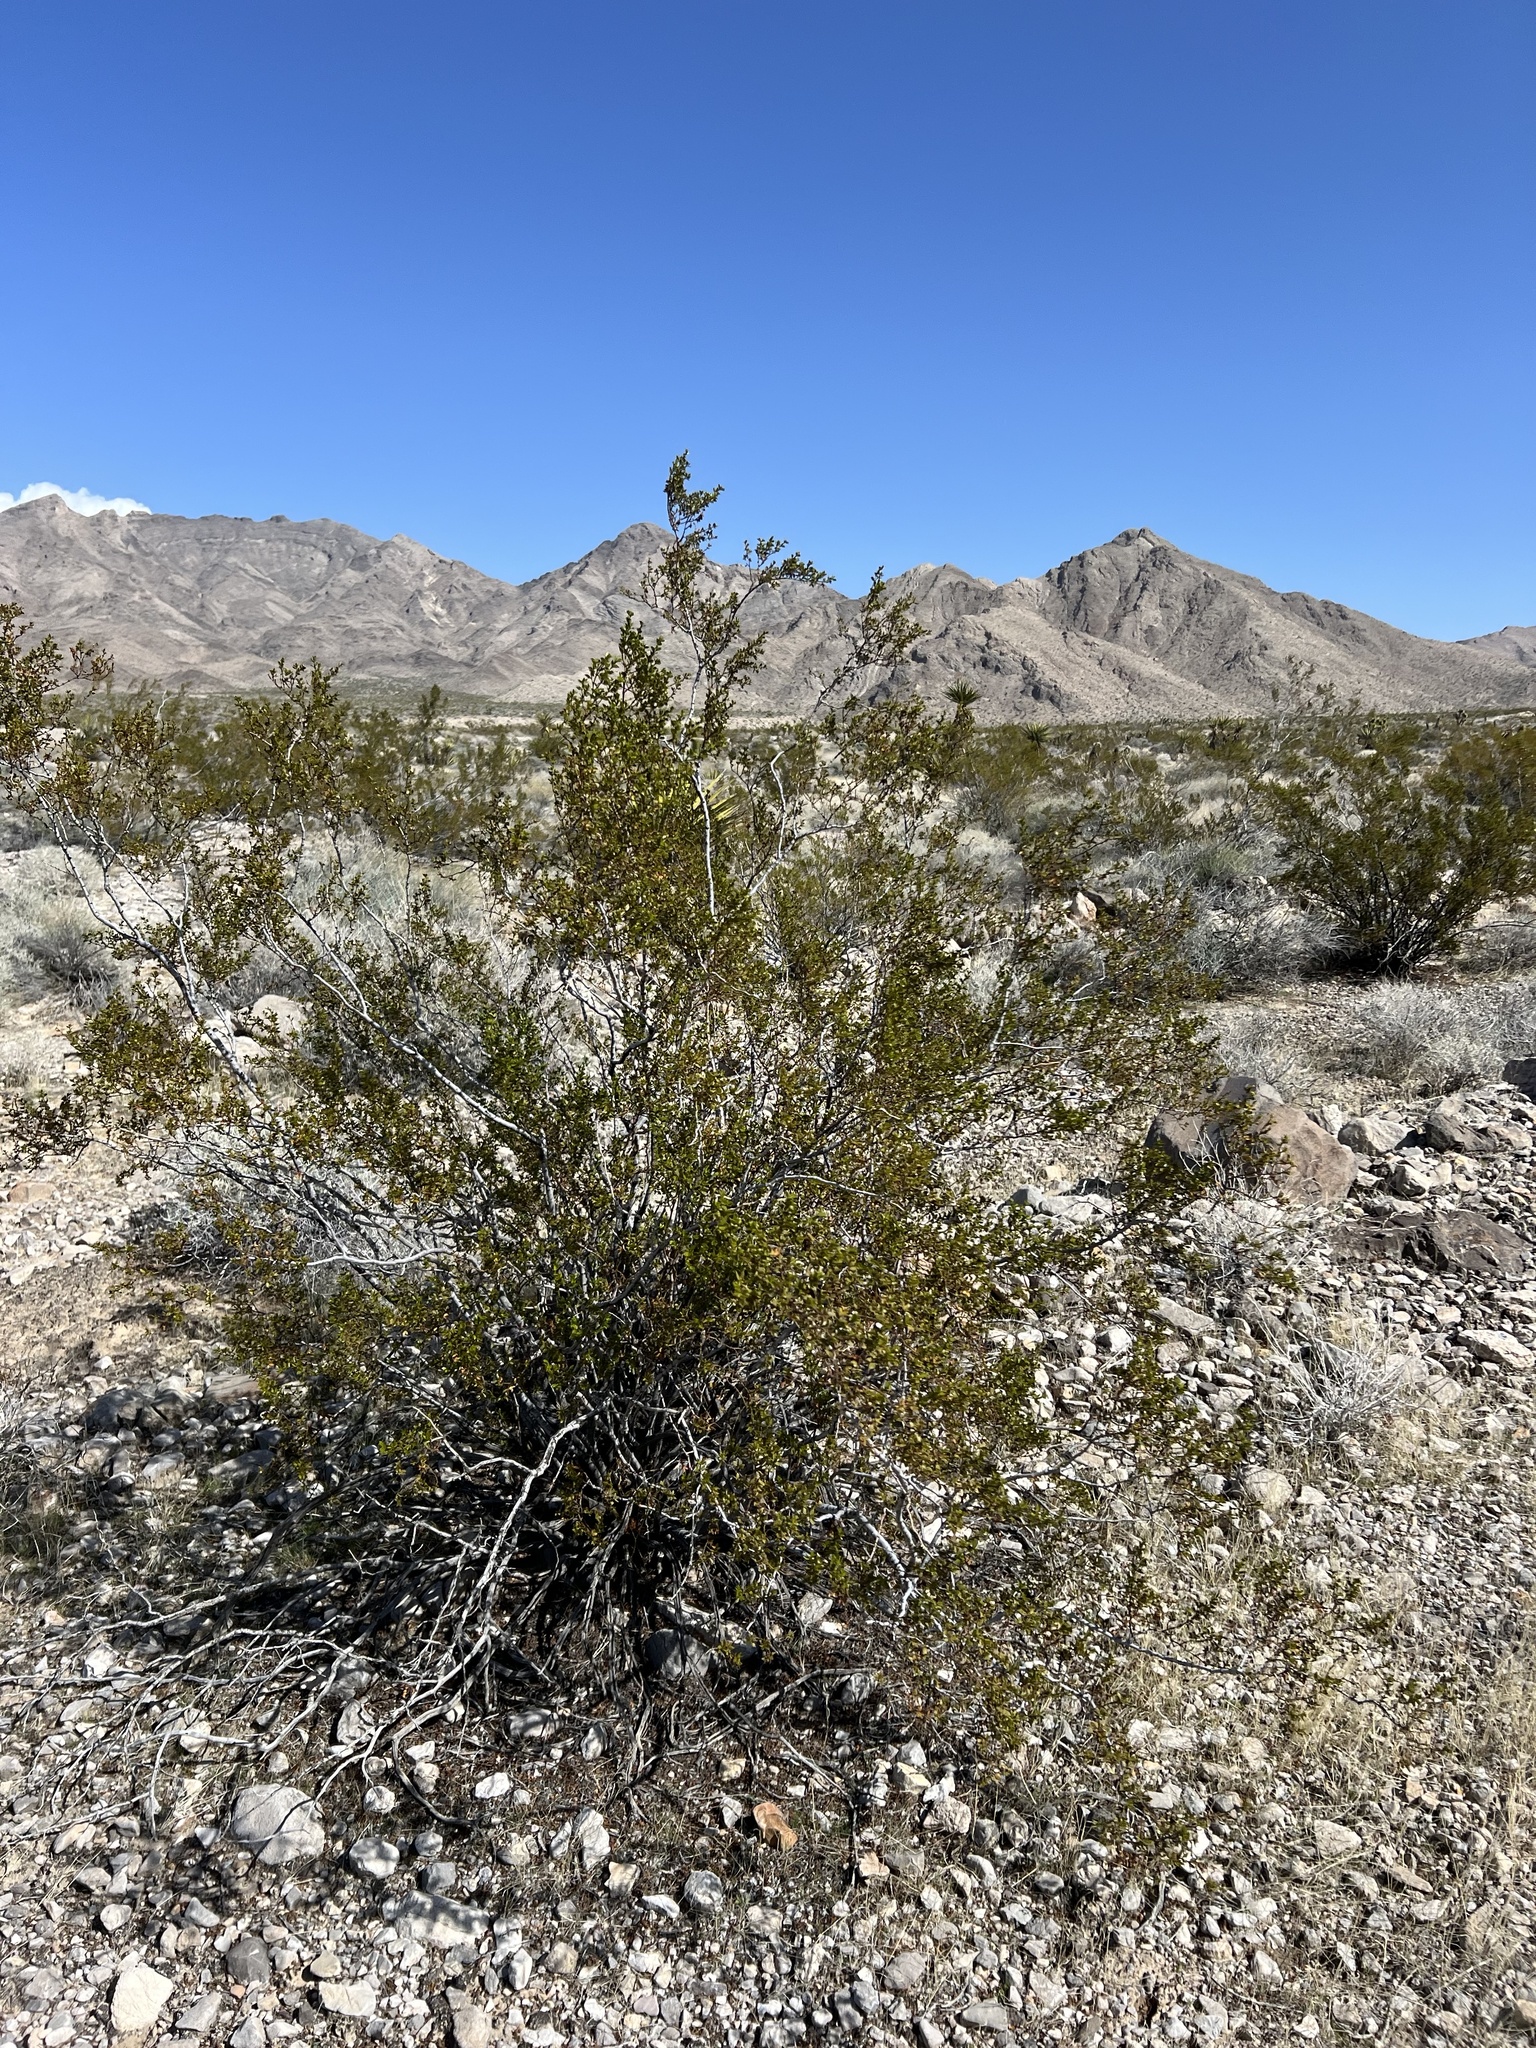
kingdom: Plantae
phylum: Tracheophyta
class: Magnoliopsida
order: Zygophyllales
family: Zygophyllaceae
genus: Larrea
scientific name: Larrea tridentata
